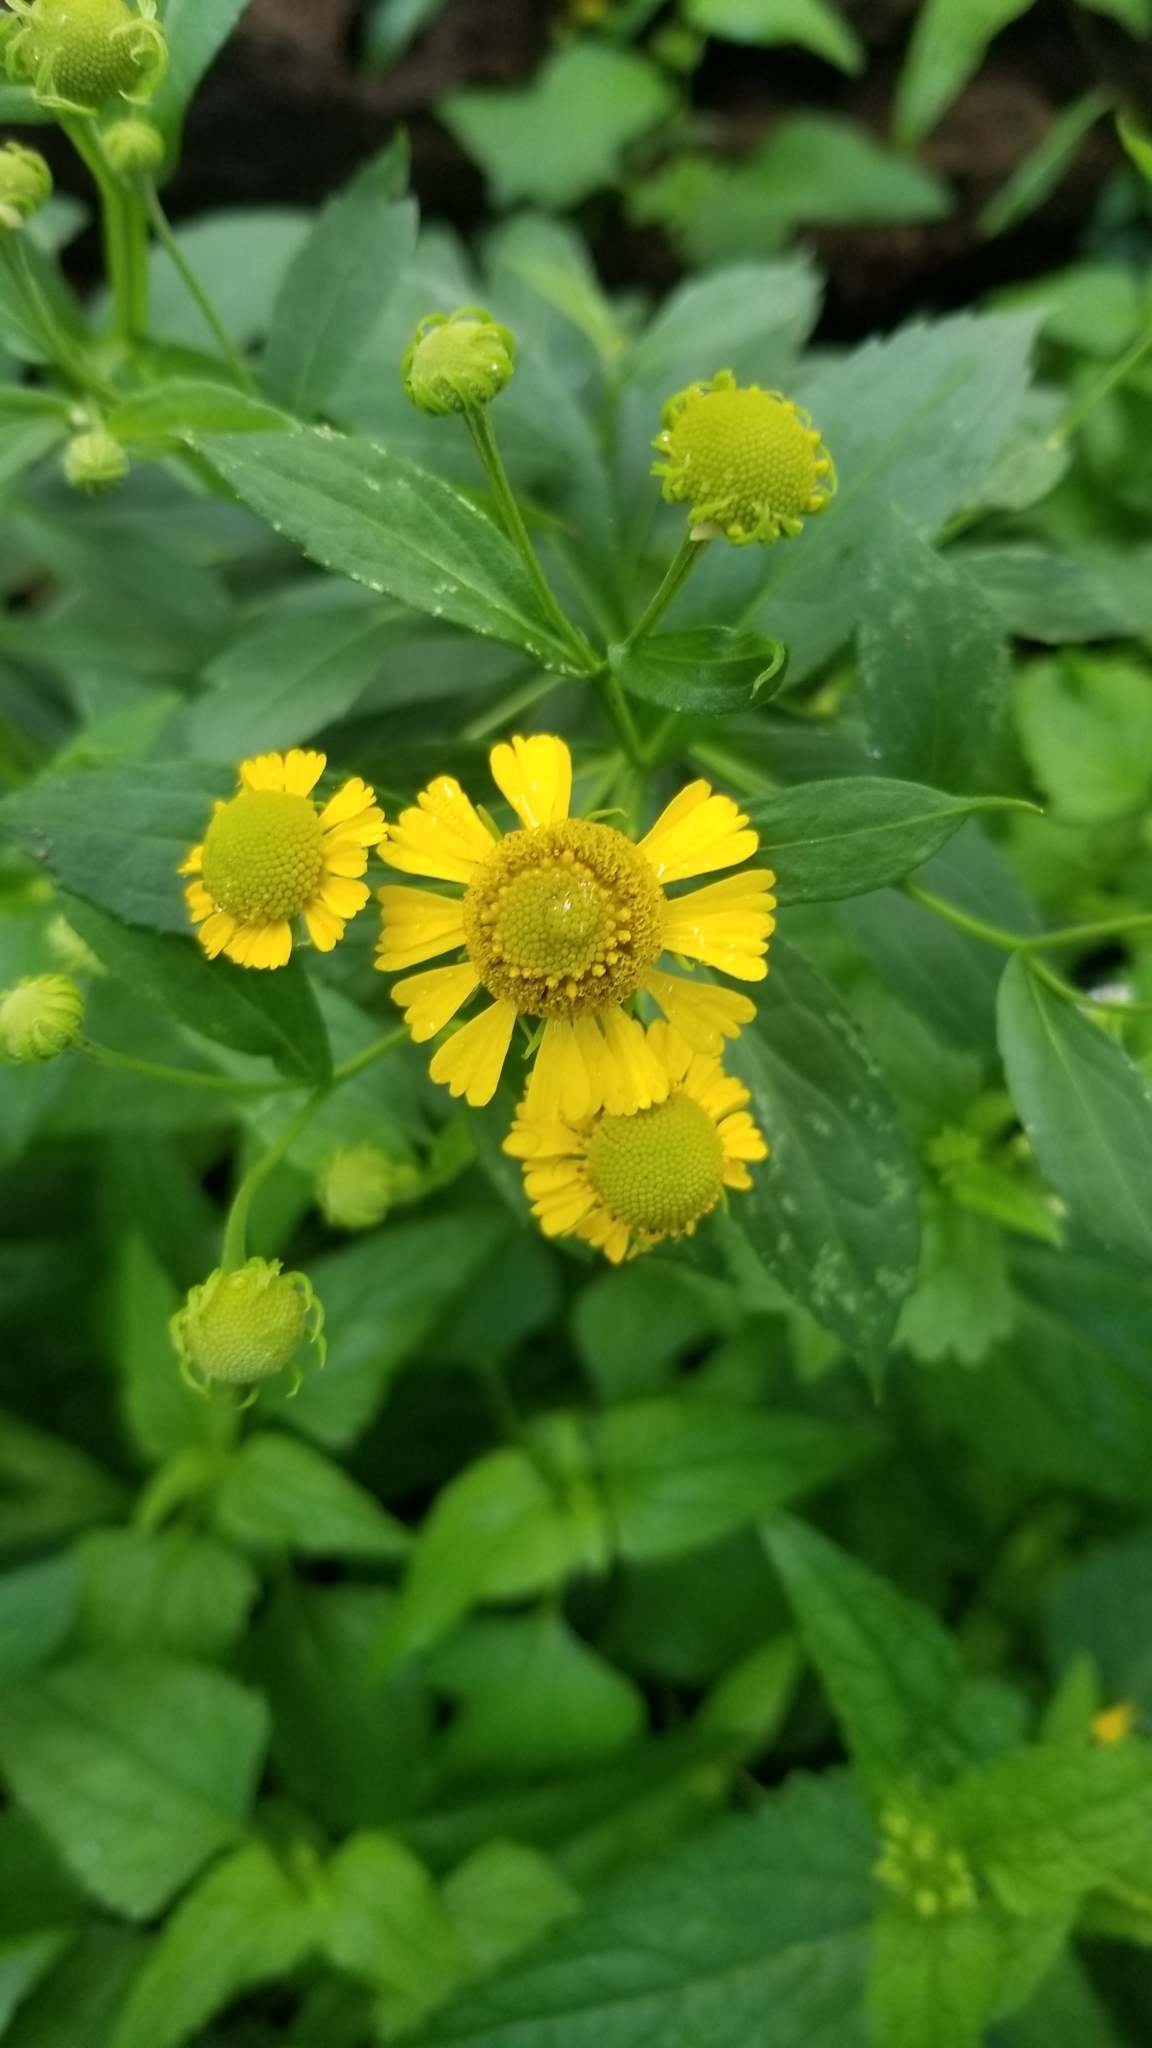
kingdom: Plantae
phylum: Tracheophyta
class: Magnoliopsida
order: Asterales
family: Asteraceae
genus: Helenium
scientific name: Helenium autumnale
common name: Sneezeweed
